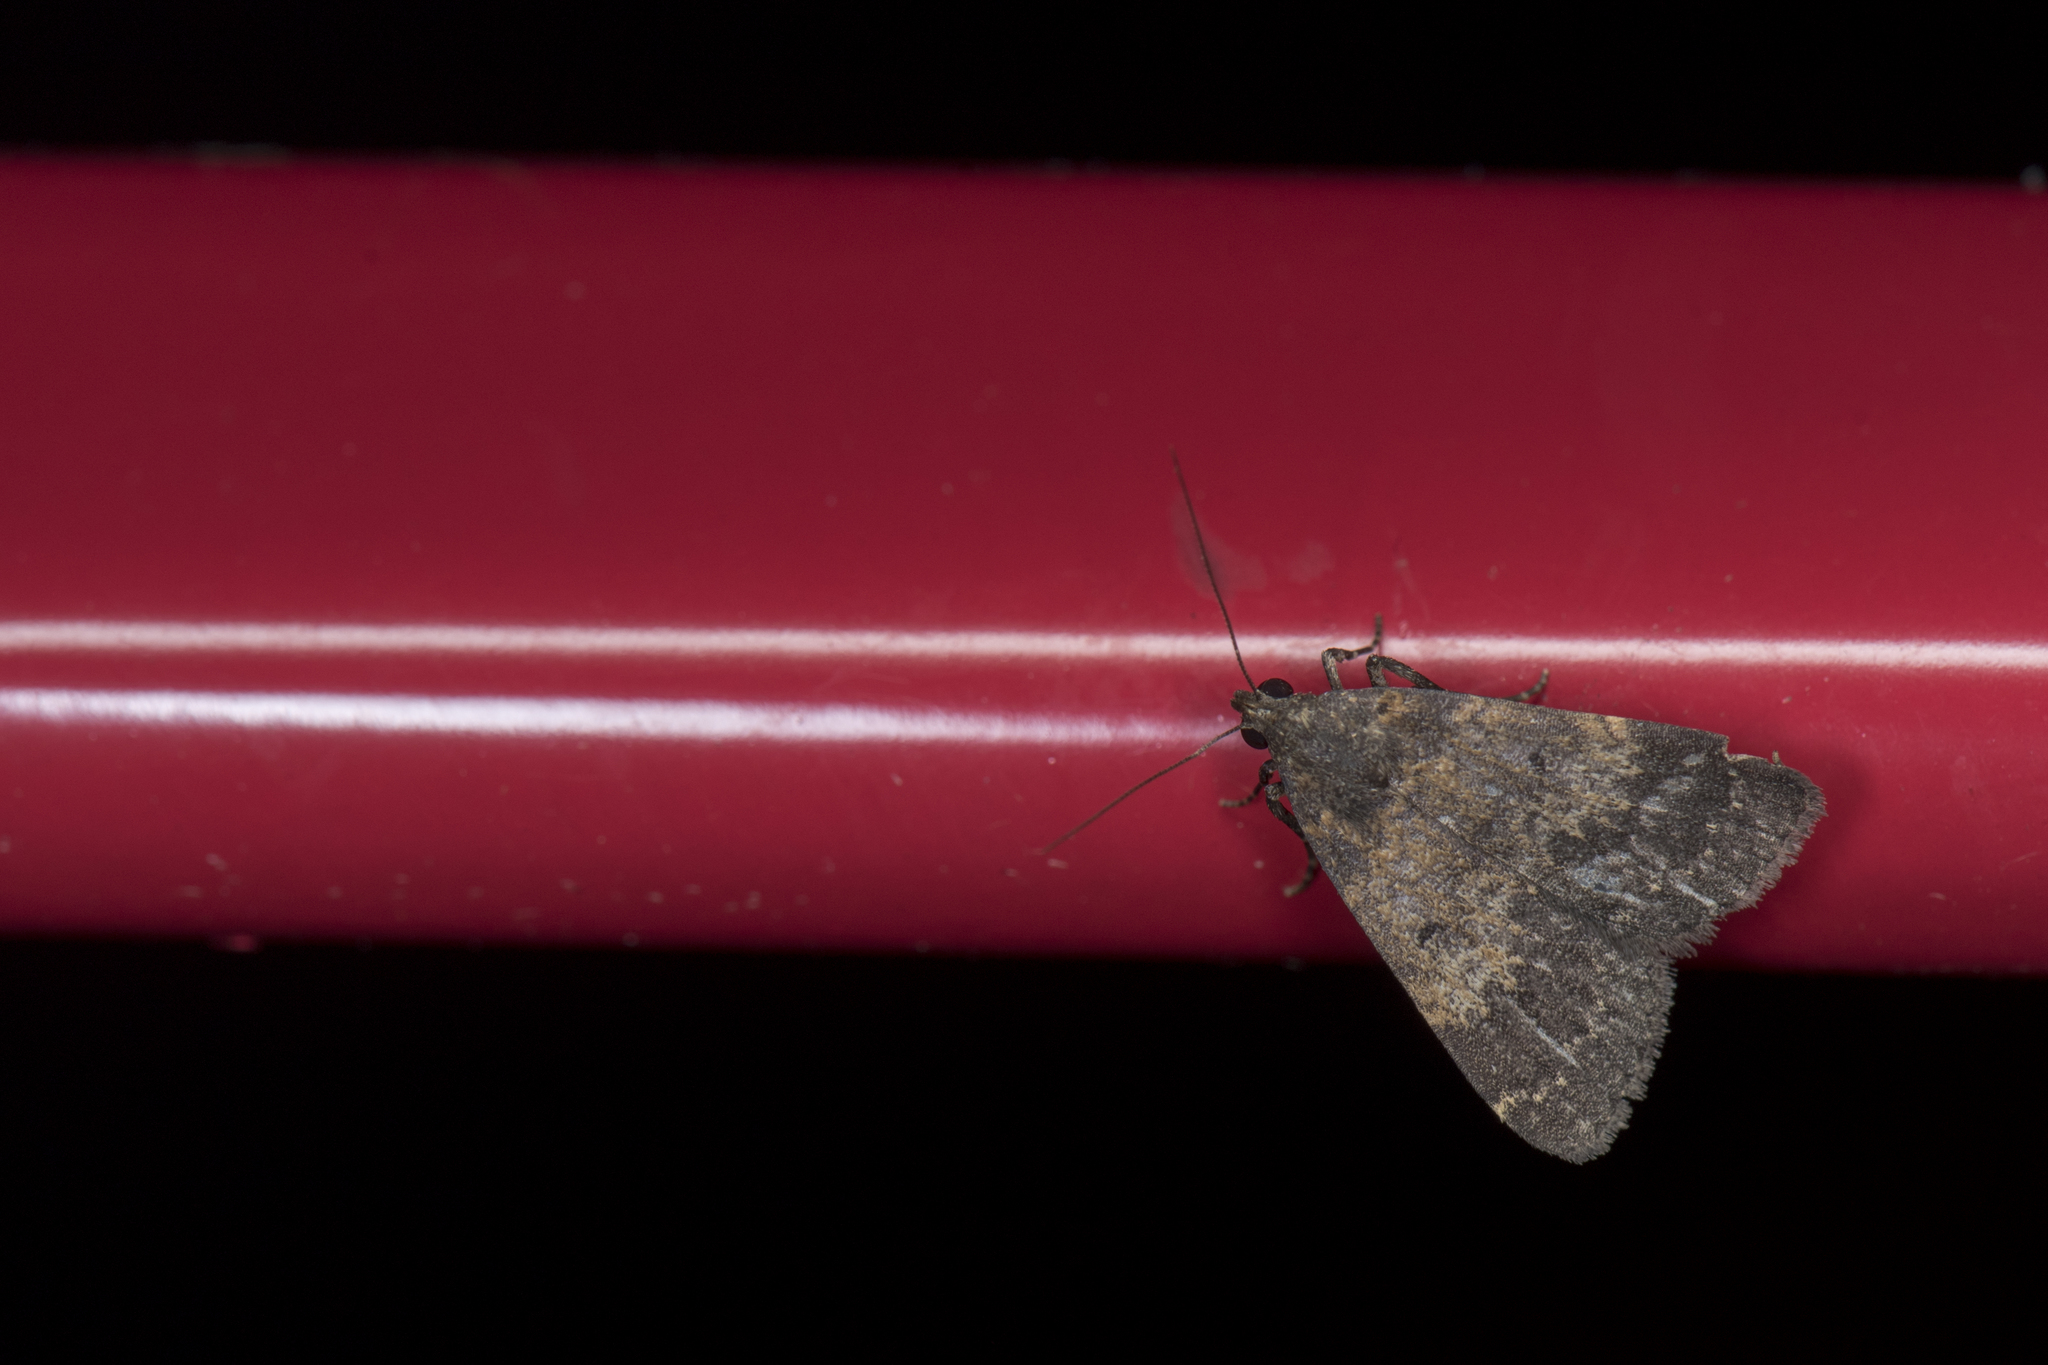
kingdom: Animalia
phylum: Arthropoda
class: Insecta
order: Lepidoptera
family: Erebidae
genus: Hydrillodes
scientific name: Hydrillodes lentalis
